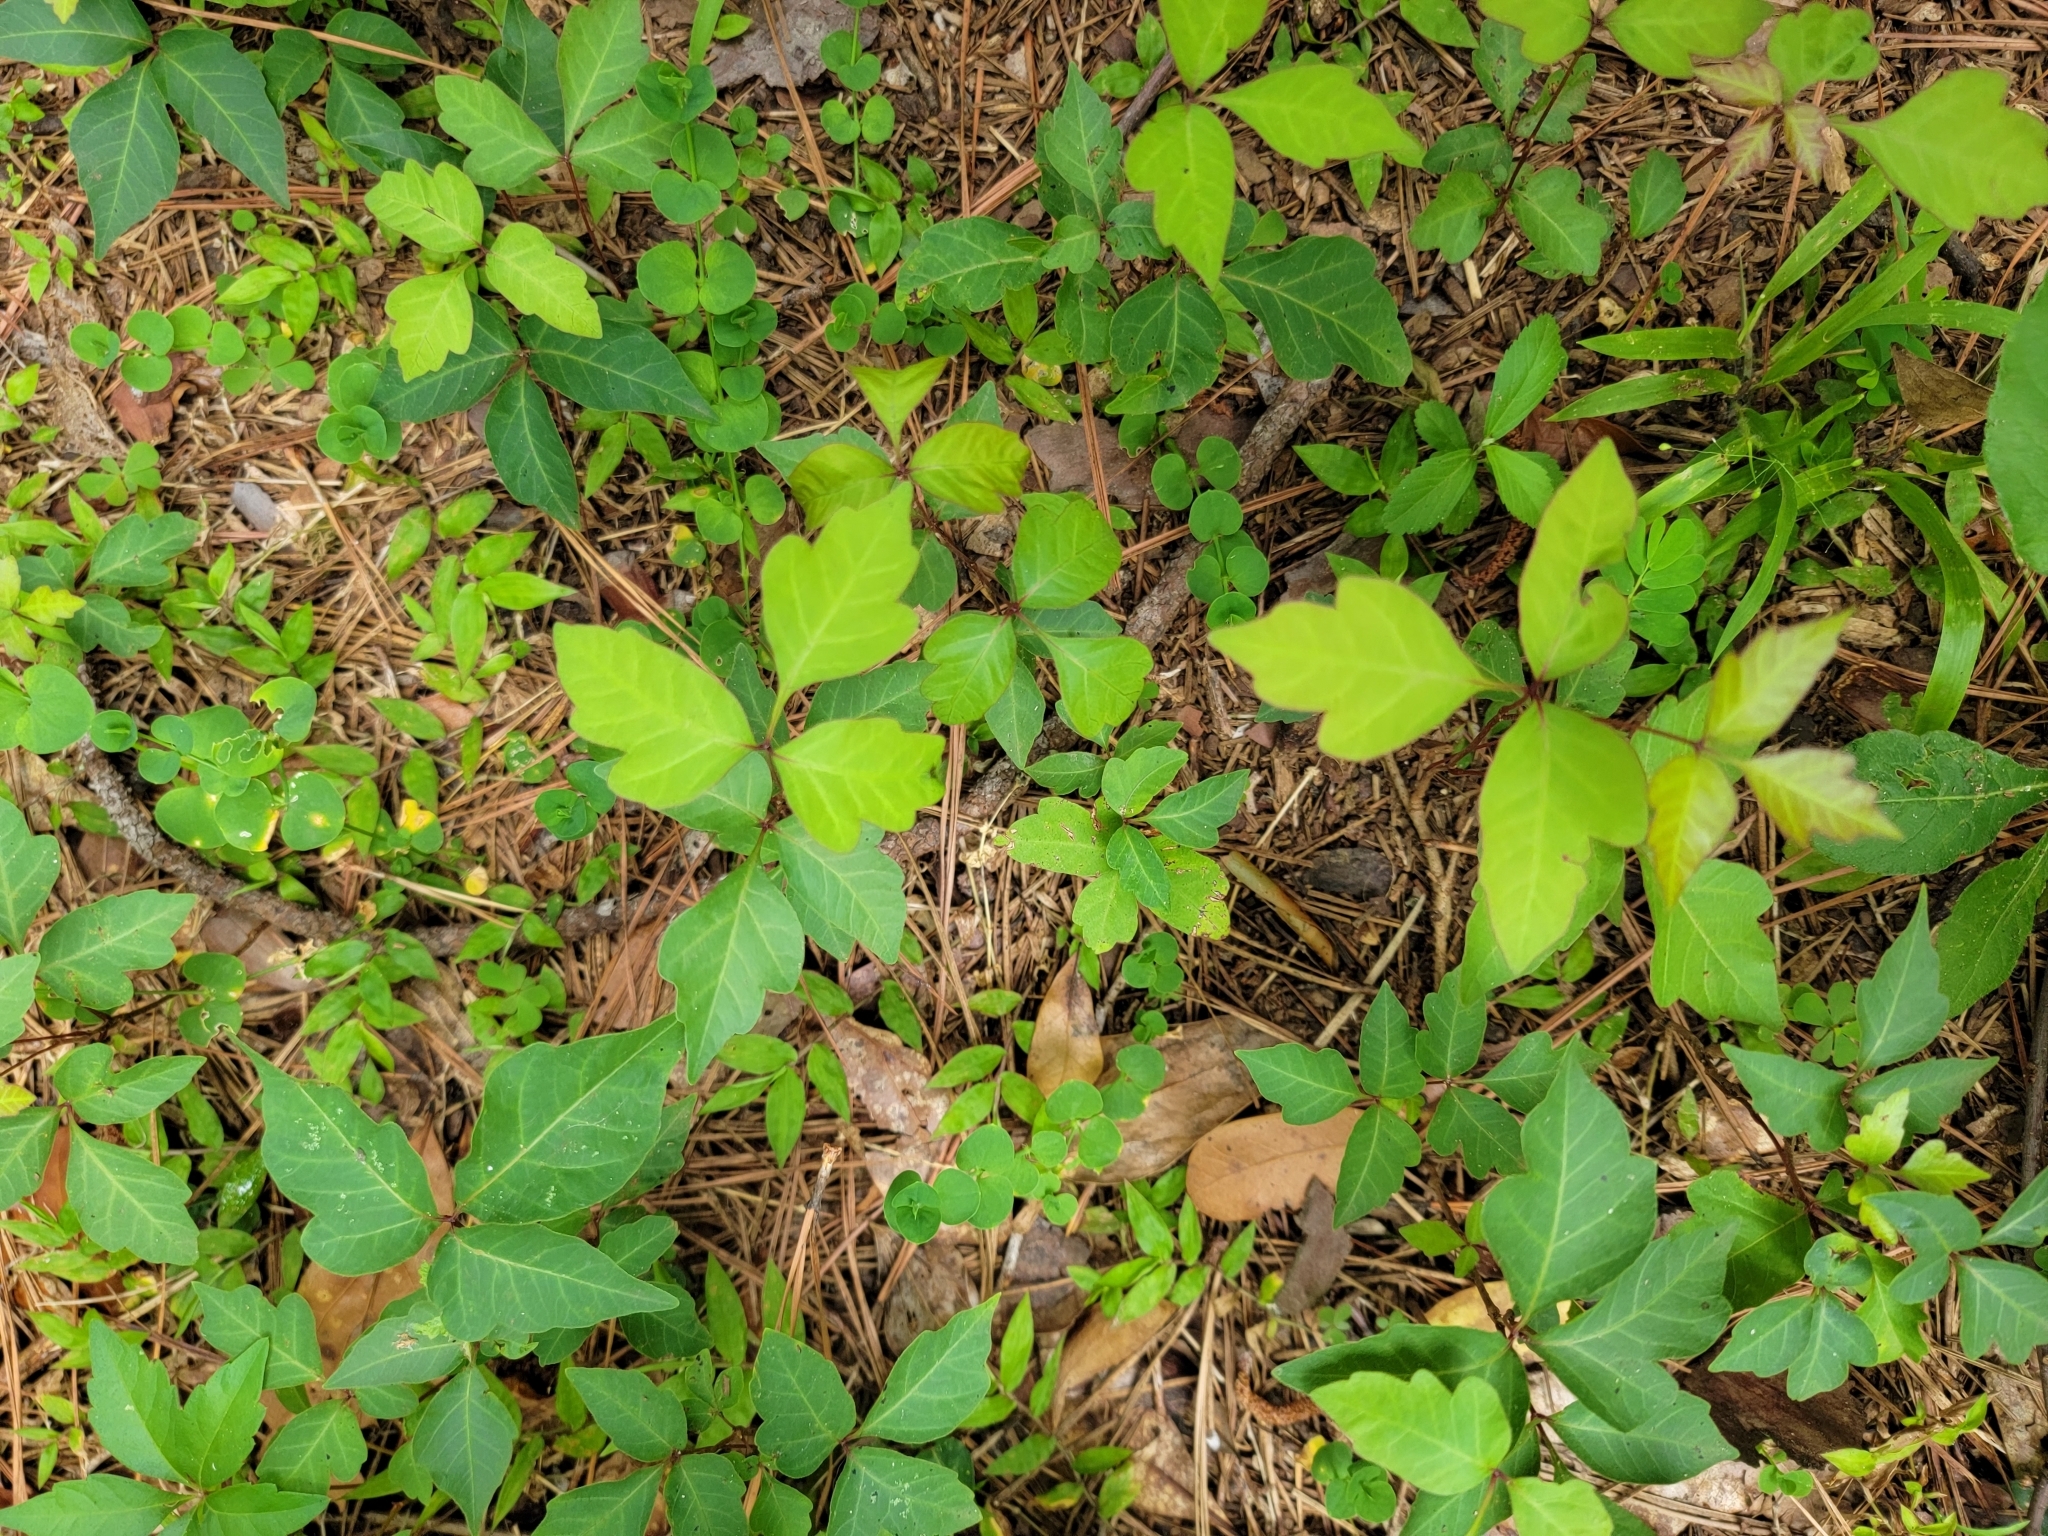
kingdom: Plantae
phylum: Tracheophyta
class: Magnoliopsida
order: Sapindales
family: Anacardiaceae
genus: Toxicodendron
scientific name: Toxicodendron radicans
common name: Poison ivy
